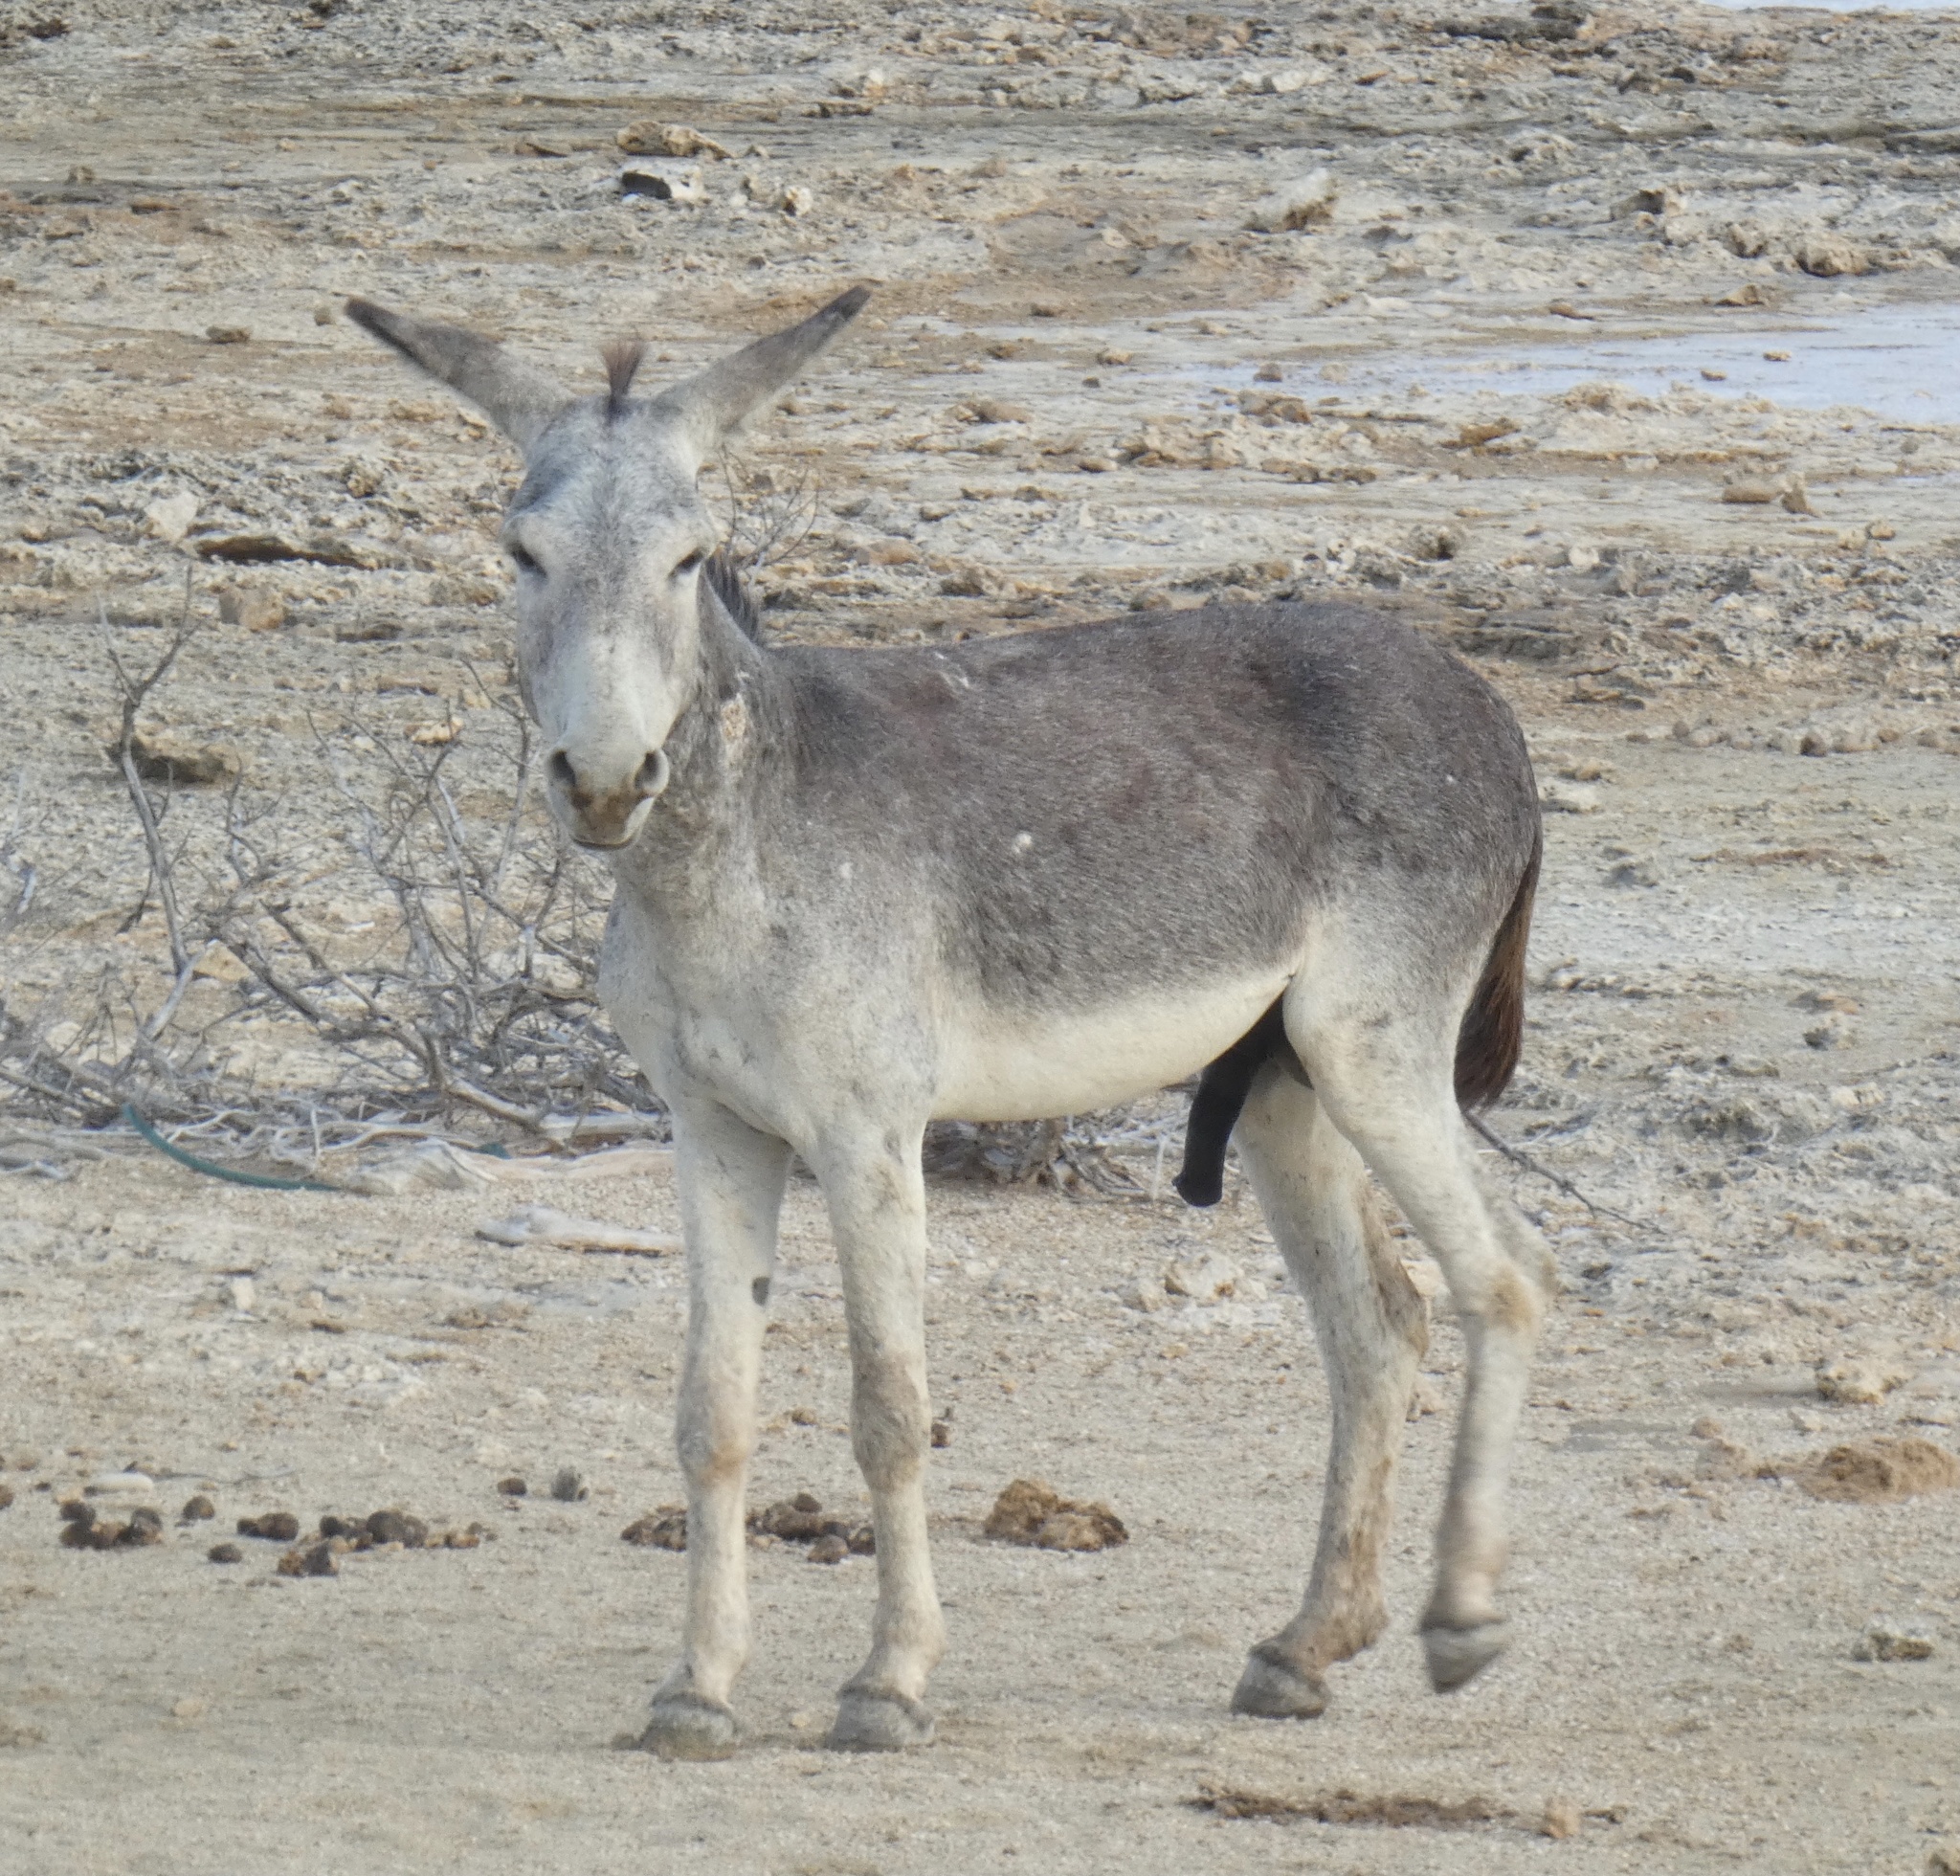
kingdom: Animalia
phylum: Chordata
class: Mammalia
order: Perissodactyla
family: Equidae
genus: Equus
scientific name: Equus asinus
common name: Ass
